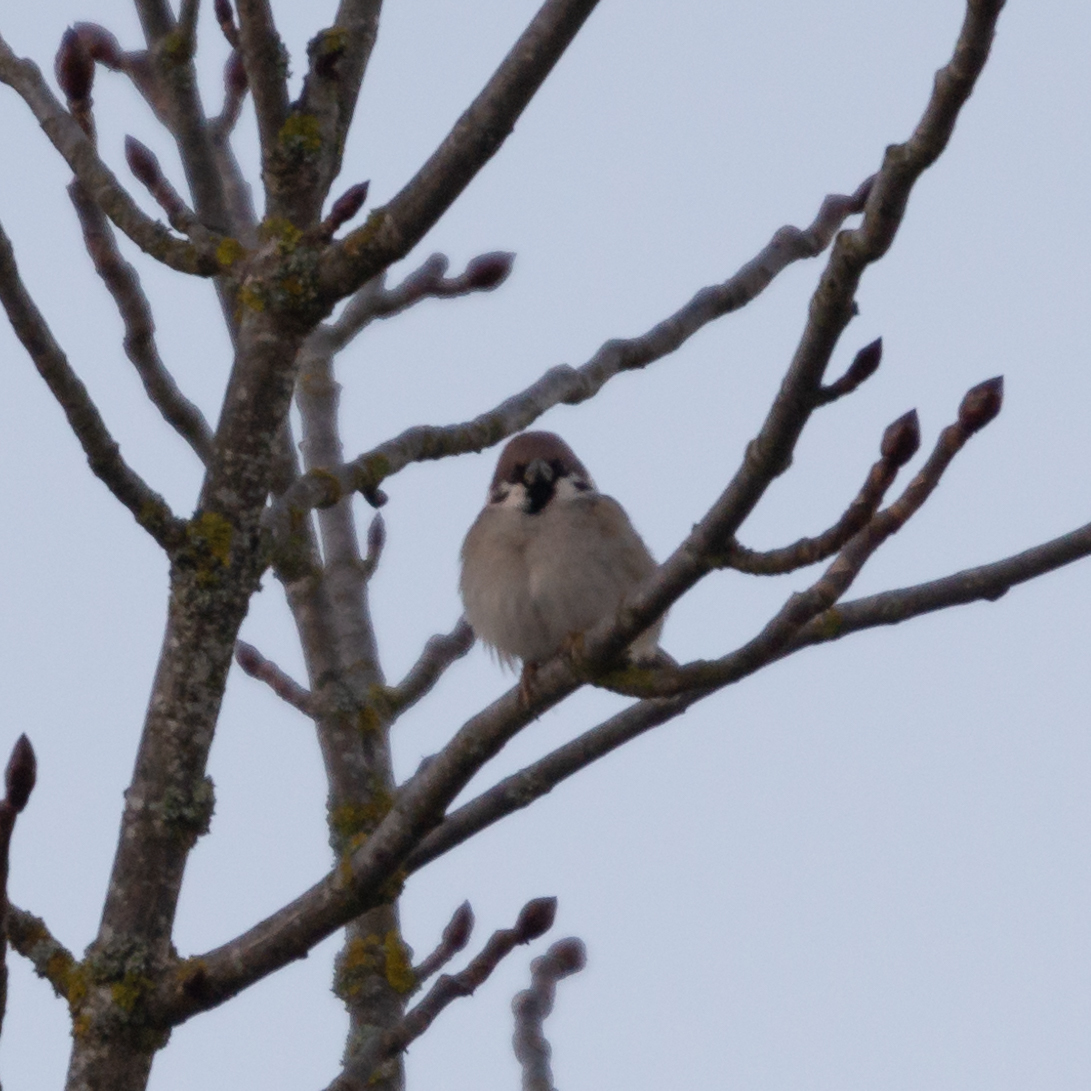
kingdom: Animalia
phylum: Chordata
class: Aves
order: Passeriformes
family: Passeridae
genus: Passer
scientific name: Passer montanus
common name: Eurasian tree sparrow
